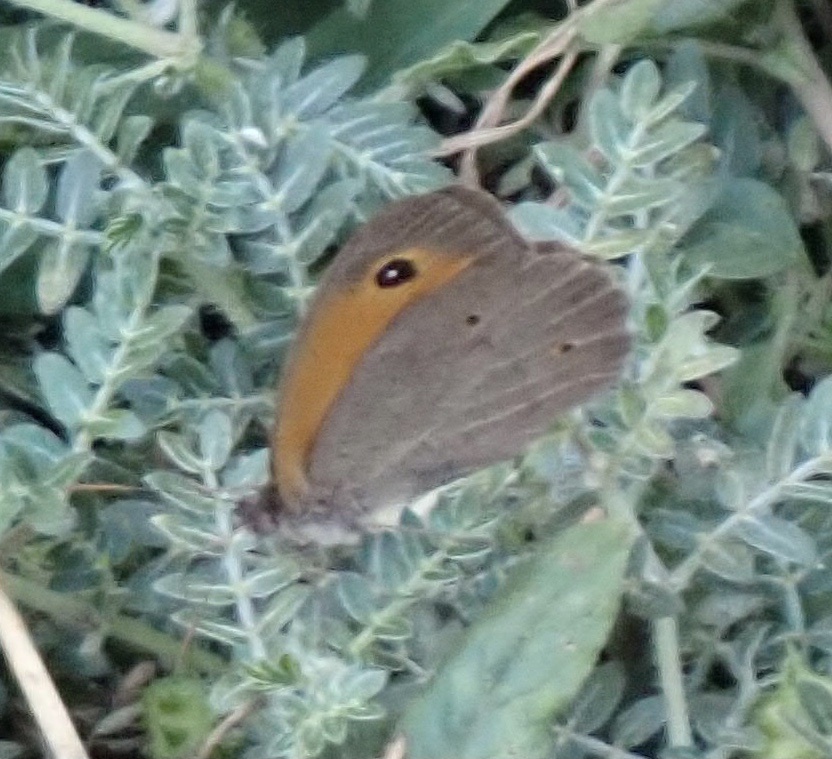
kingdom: Animalia
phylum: Arthropoda
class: Insecta
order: Lepidoptera
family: Nymphalidae
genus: Maniola
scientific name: Maniola jurtina
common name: Meadow brown
